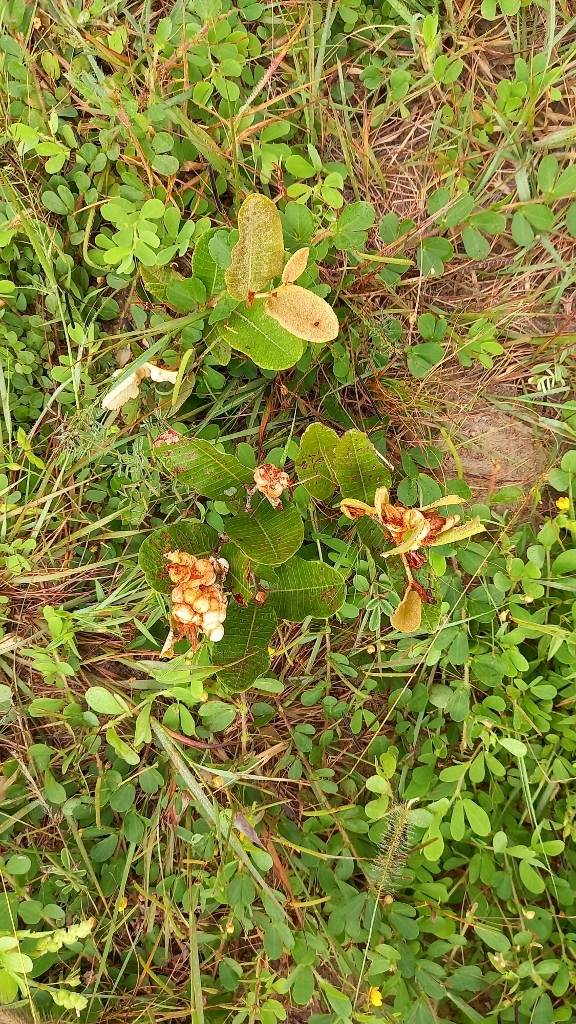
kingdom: Plantae
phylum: Tracheophyta
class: Magnoliopsida
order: Malpighiales
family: Chrysobalanaceae
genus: Parinari
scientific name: Parinari capensis
